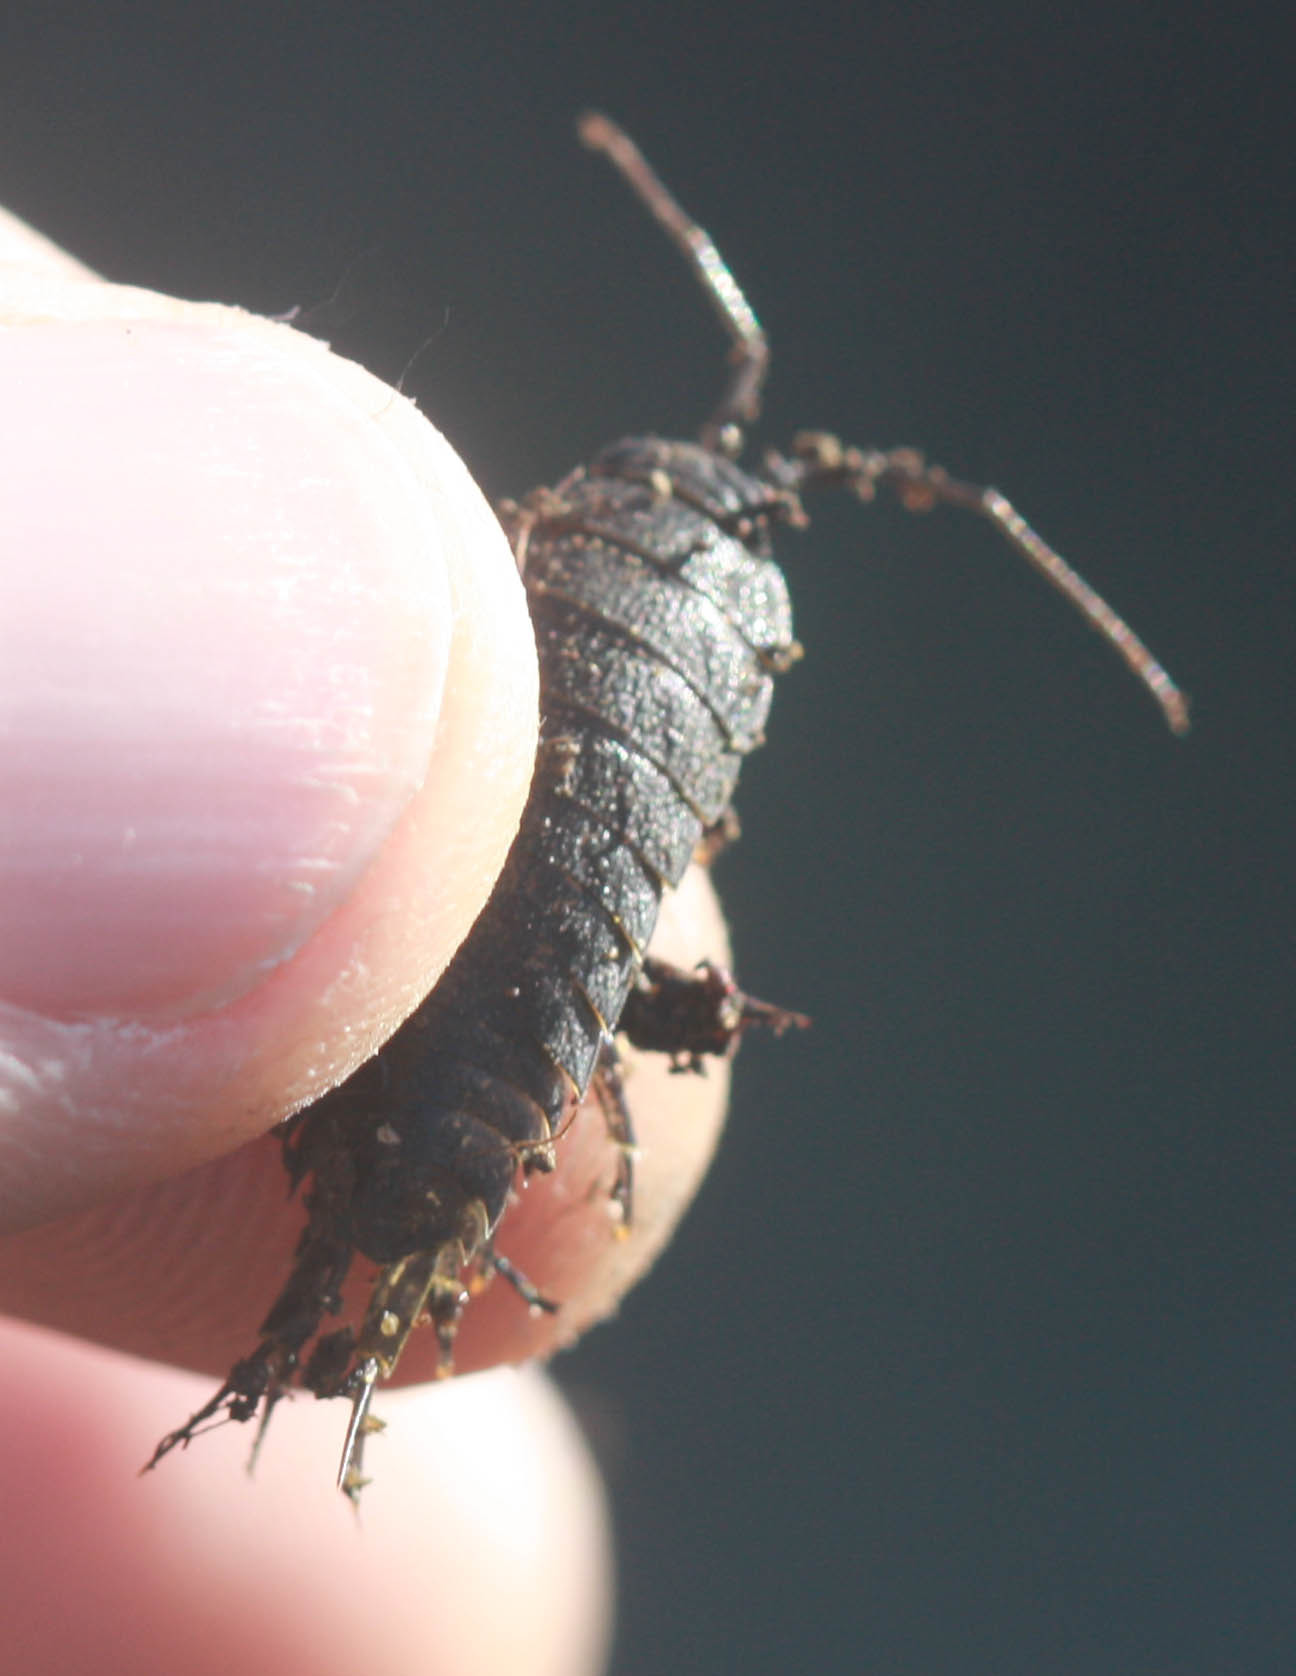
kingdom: Animalia
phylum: Arthropoda
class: Malacostraca
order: Isopoda
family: Ligiidae
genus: Ligia
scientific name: Ligia occidentalis
